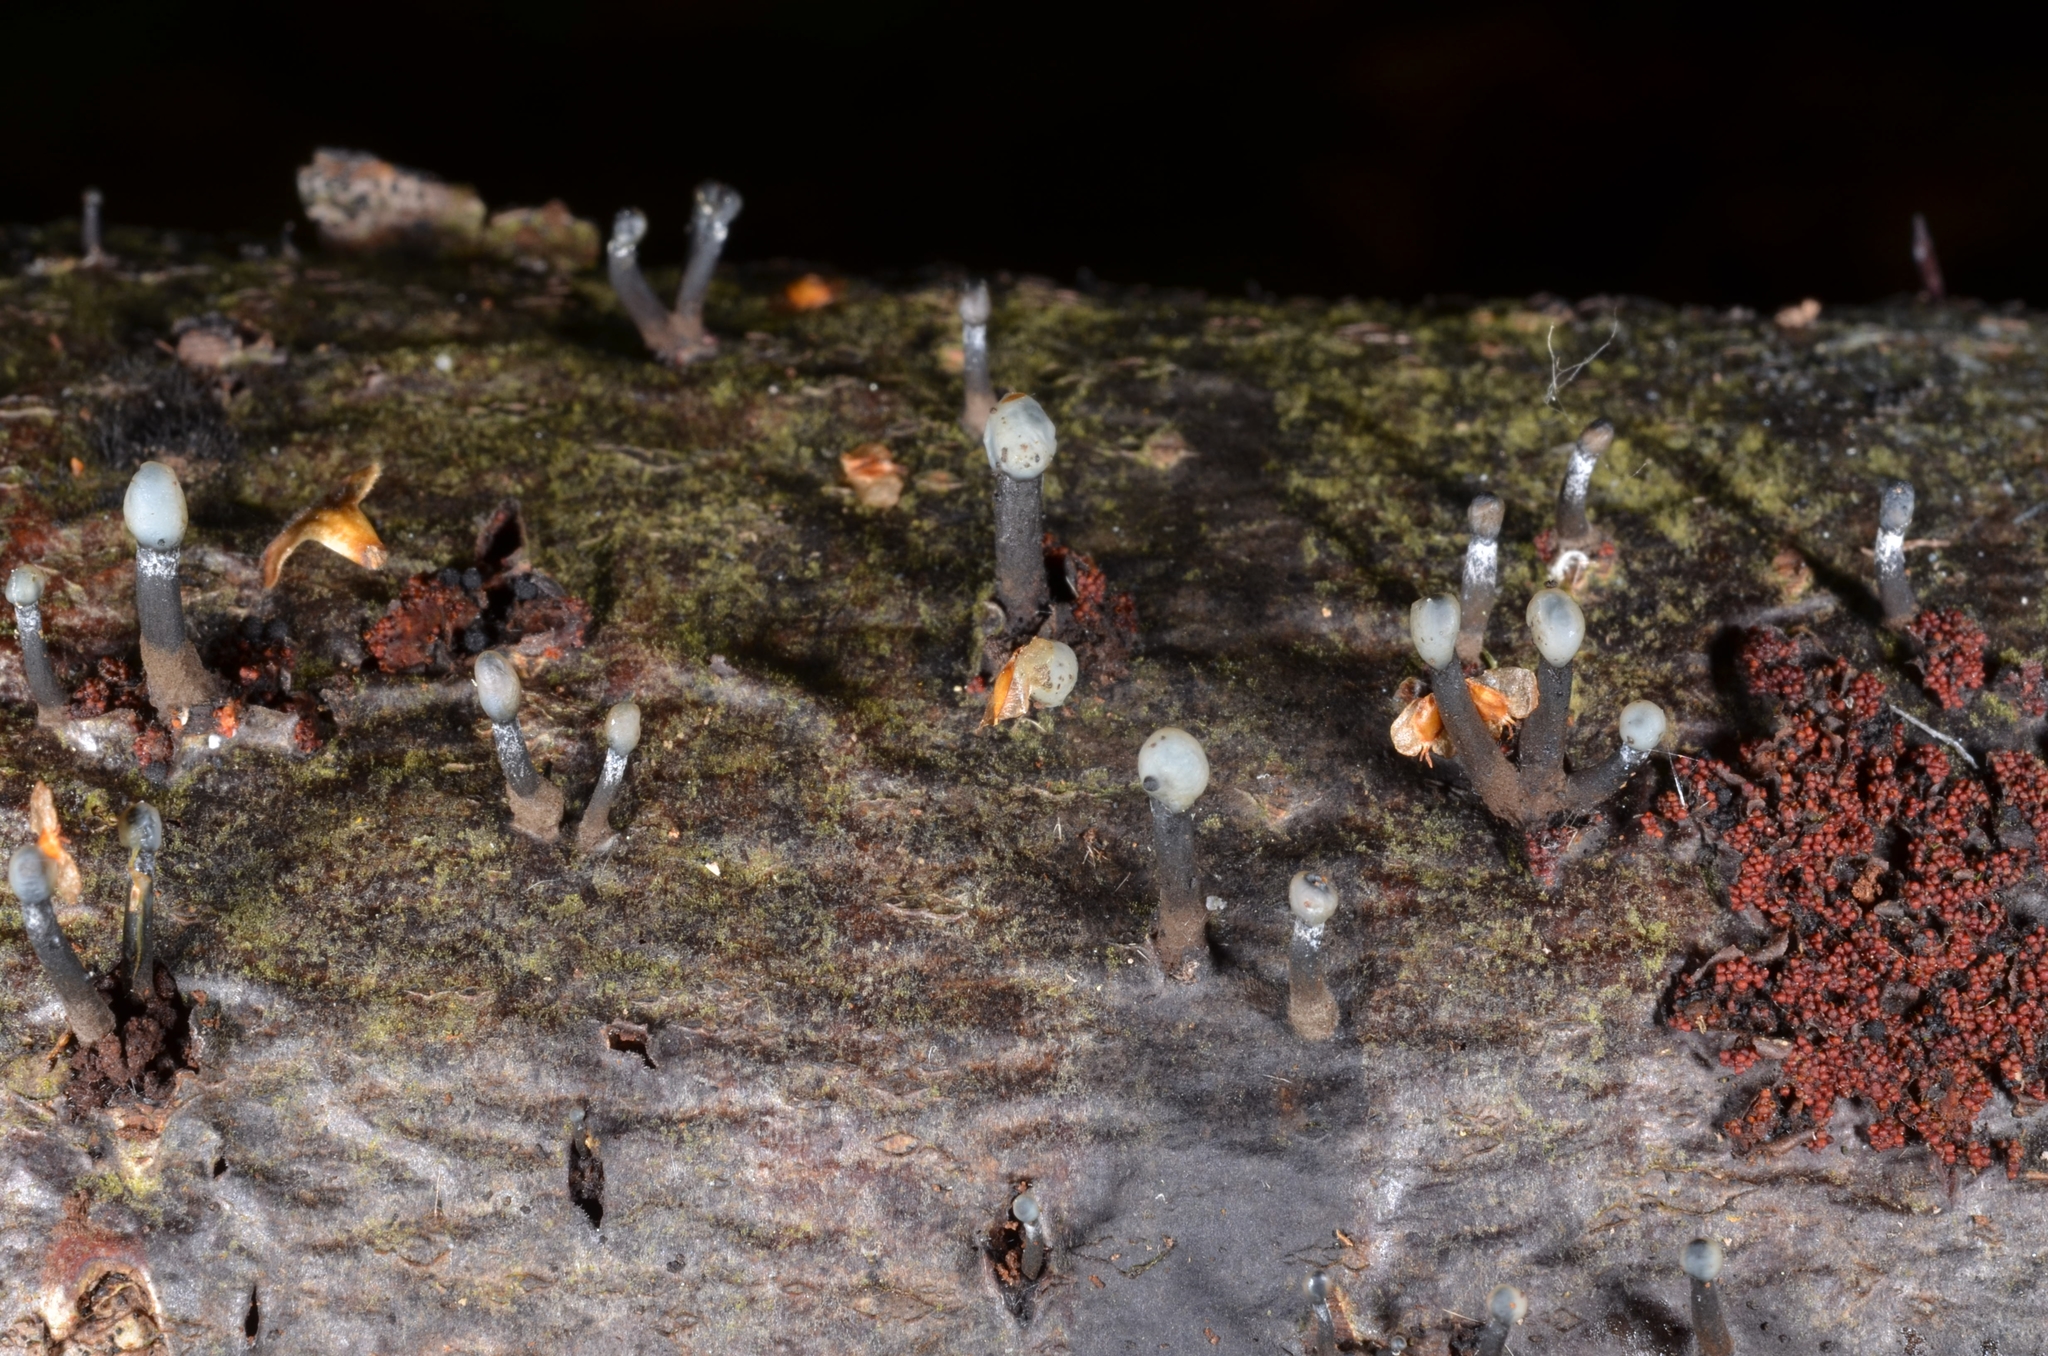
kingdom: Fungi
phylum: Ascomycota
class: Leotiomycetes
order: Helotiales
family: Bulgariaceae
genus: Holwaya
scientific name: Holwaya mucida
